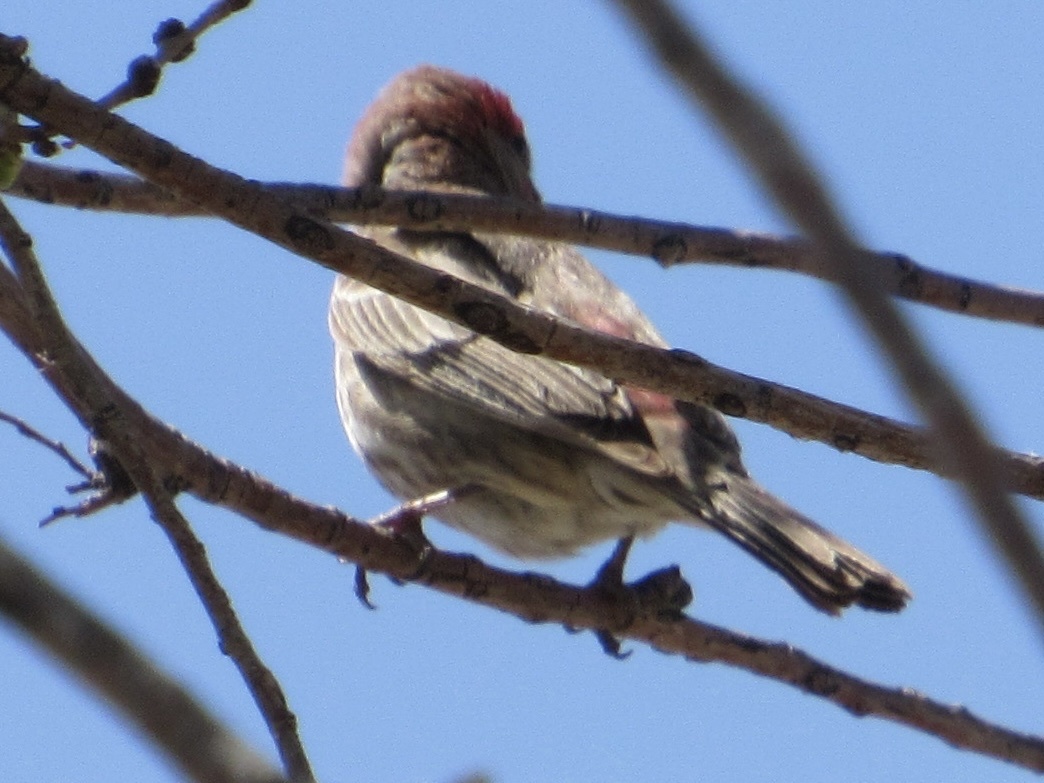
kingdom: Animalia
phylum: Chordata
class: Aves
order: Passeriformes
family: Fringillidae
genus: Haemorhous
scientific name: Haemorhous mexicanus
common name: House finch
